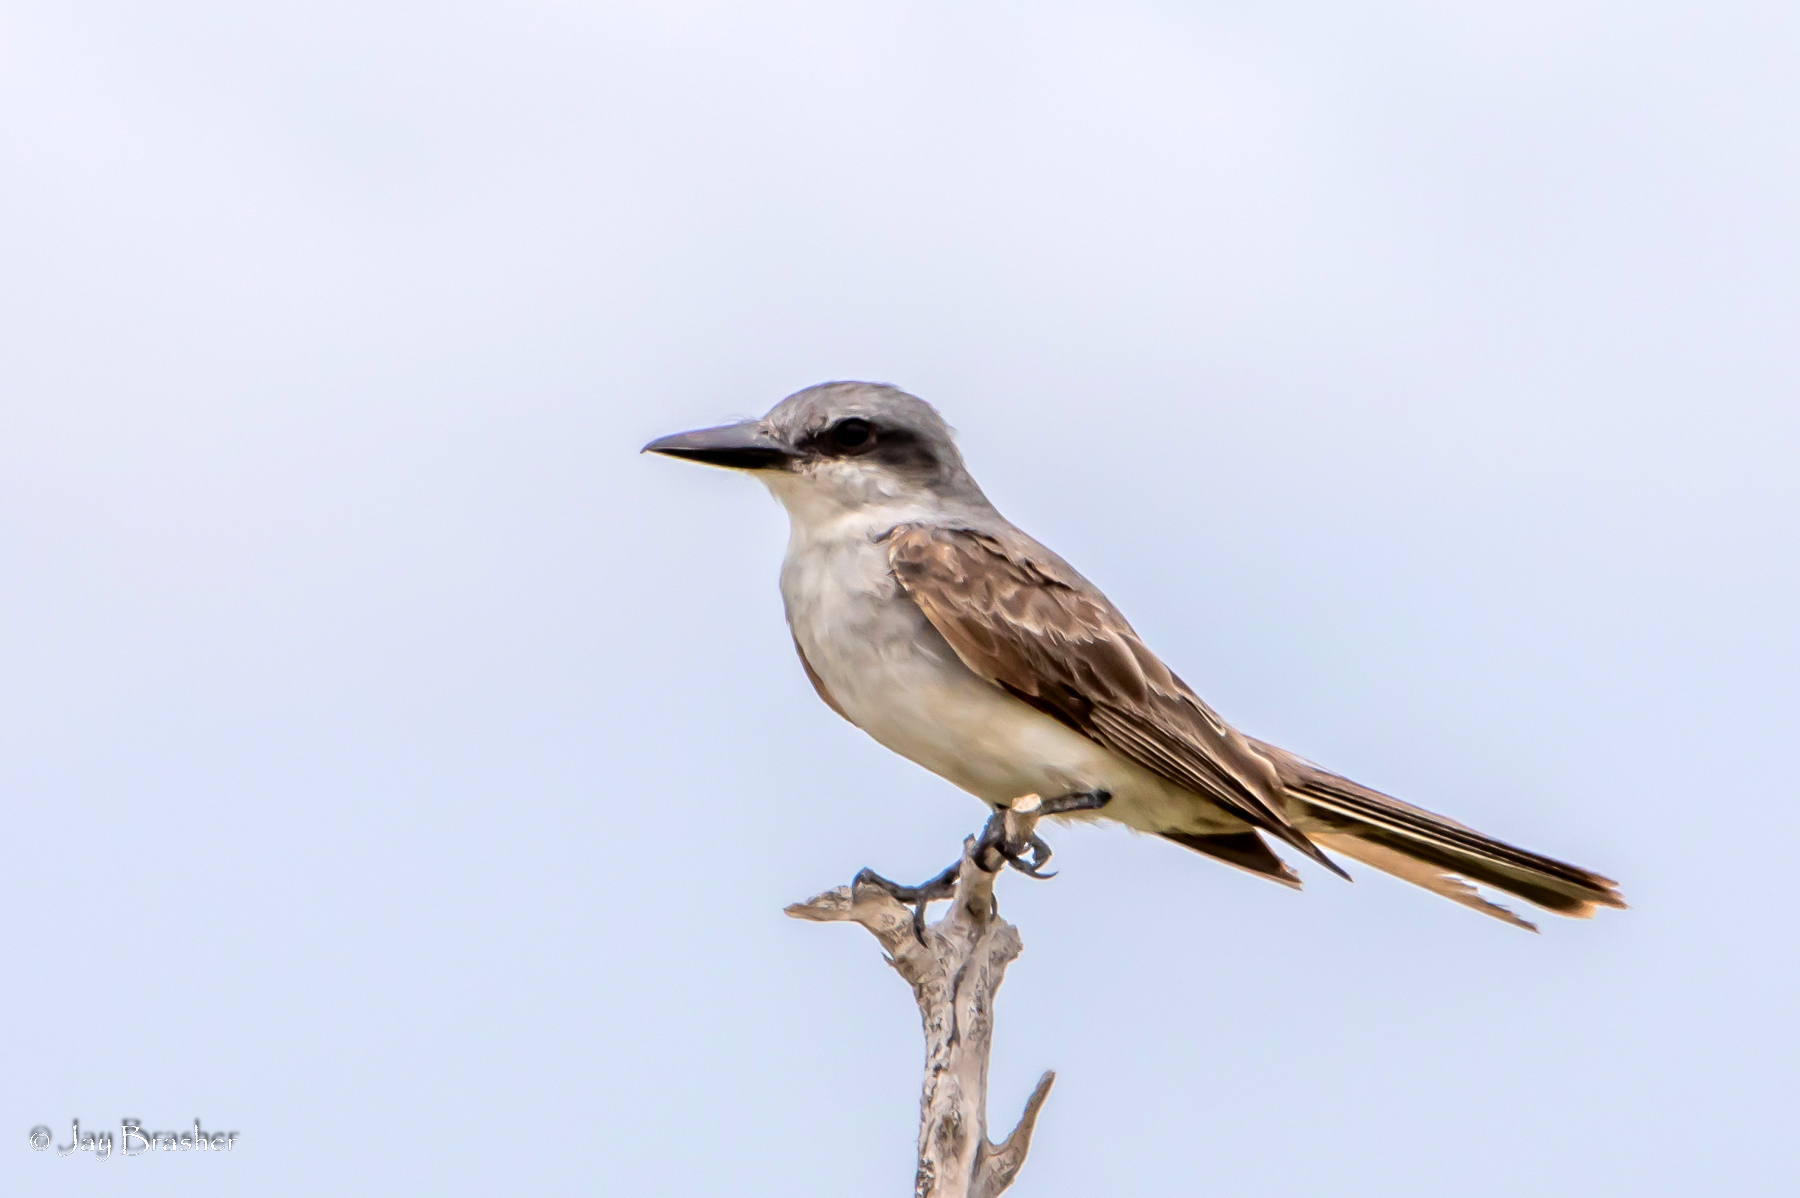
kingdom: Animalia
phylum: Chordata
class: Aves
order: Passeriformes
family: Tyrannidae
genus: Tyrannus
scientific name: Tyrannus dominicensis
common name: Gray kingbird
